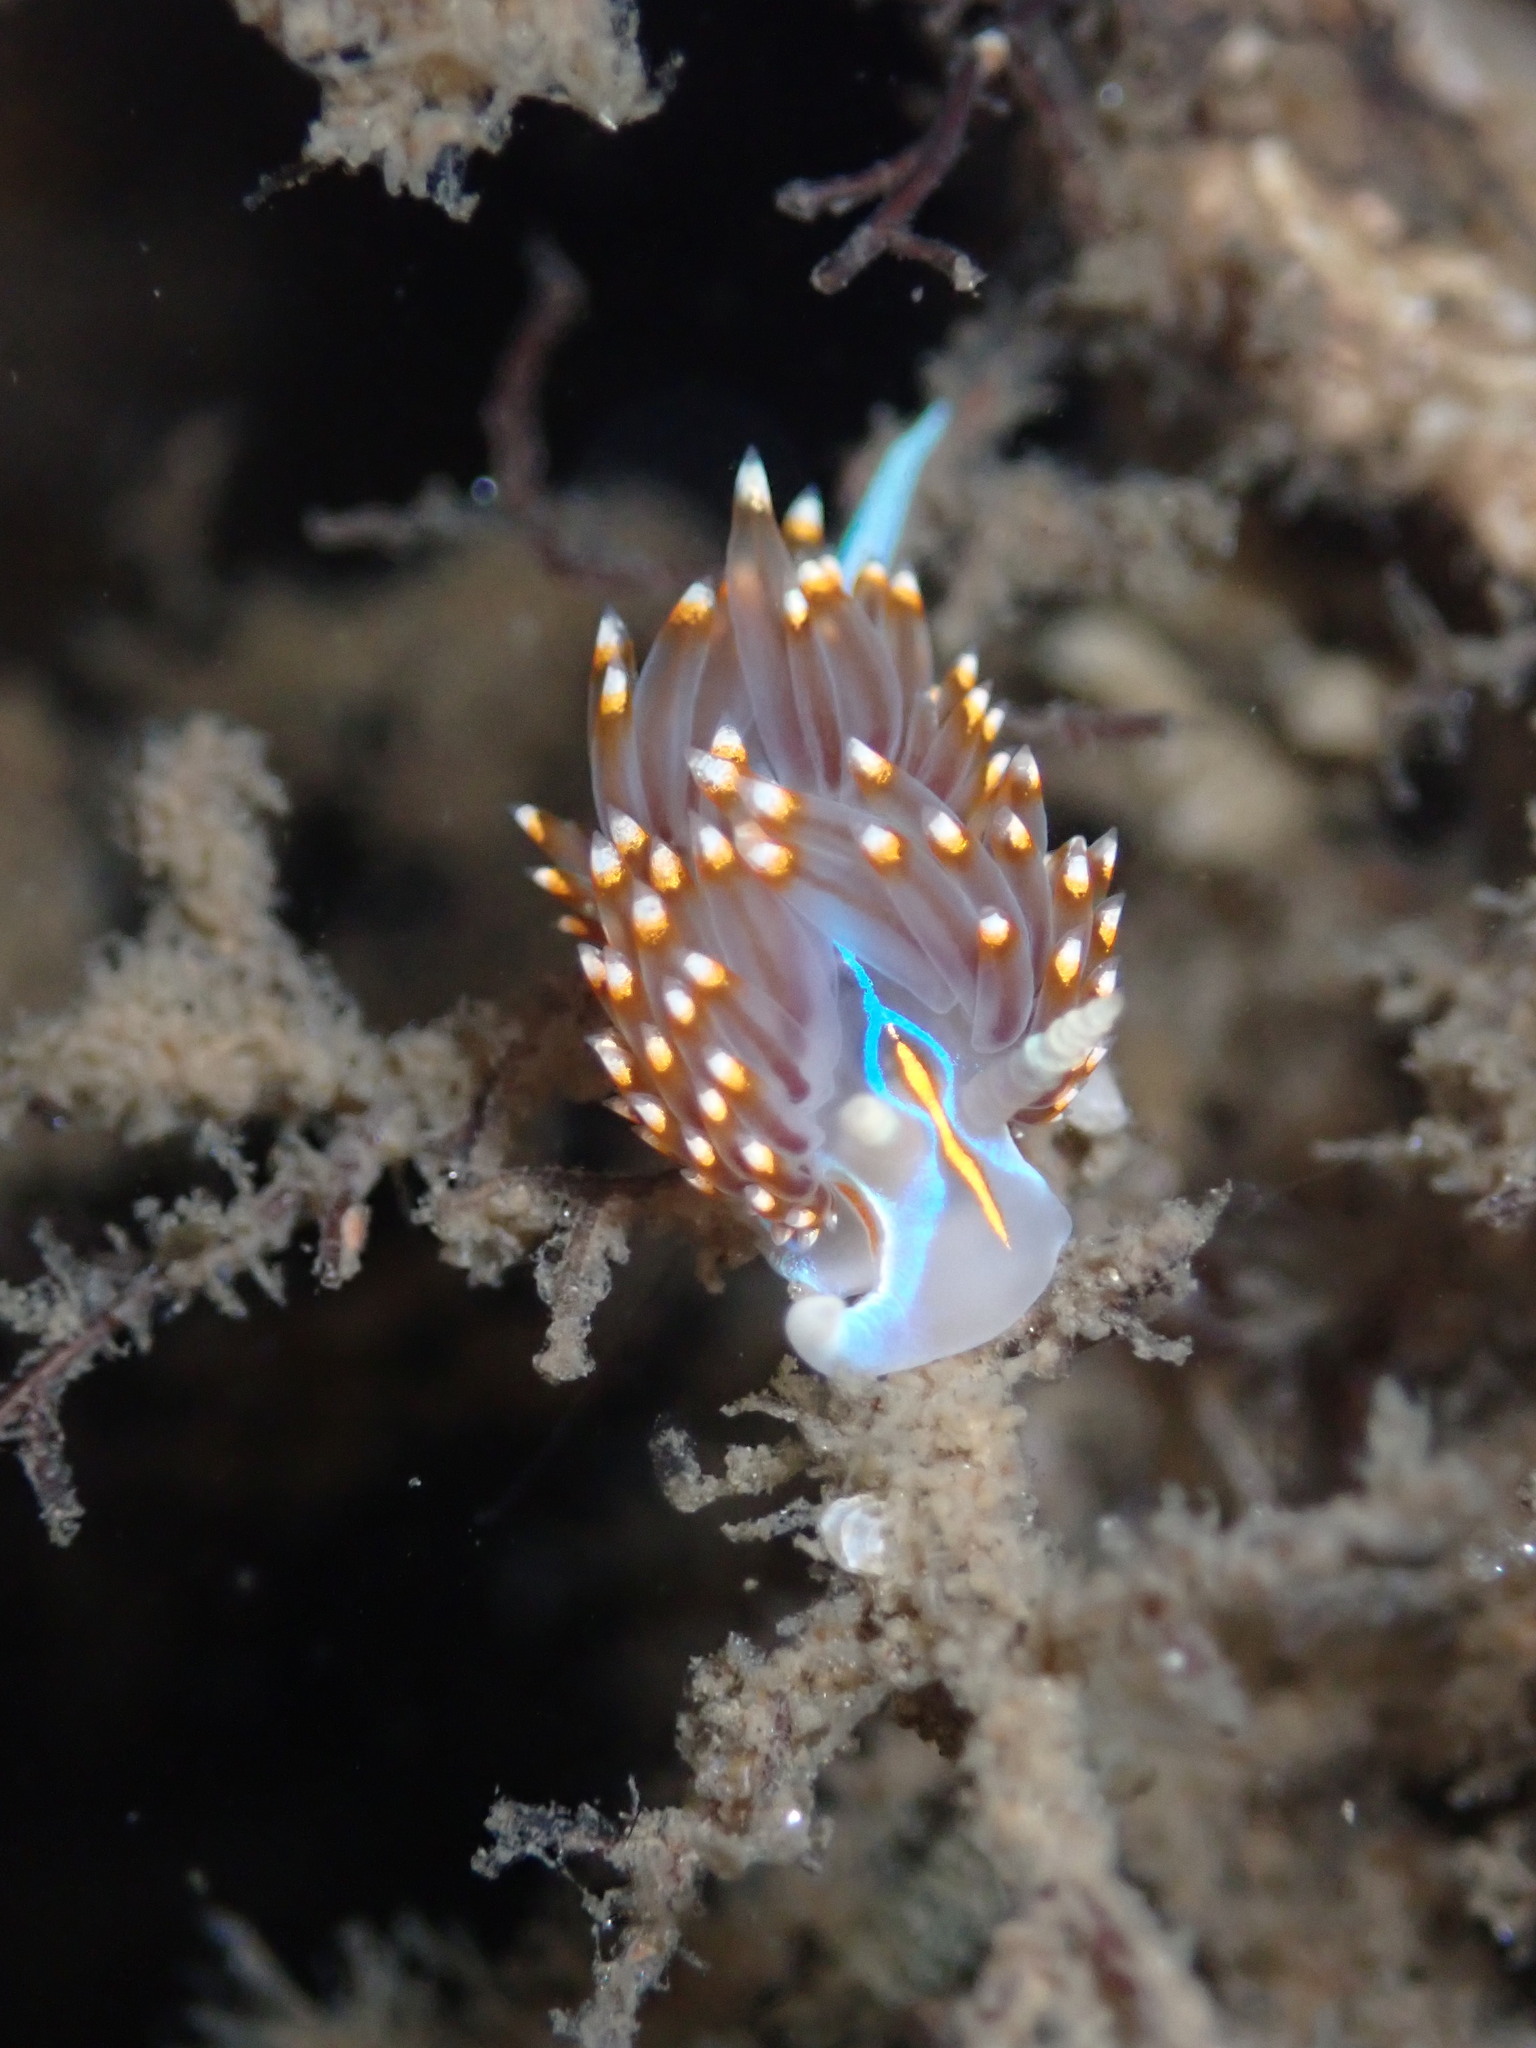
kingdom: Animalia
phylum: Mollusca
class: Gastropoda
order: Nudibranchia
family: Myrrhinidae
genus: Hermissenda
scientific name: Hermissenda opalescens
